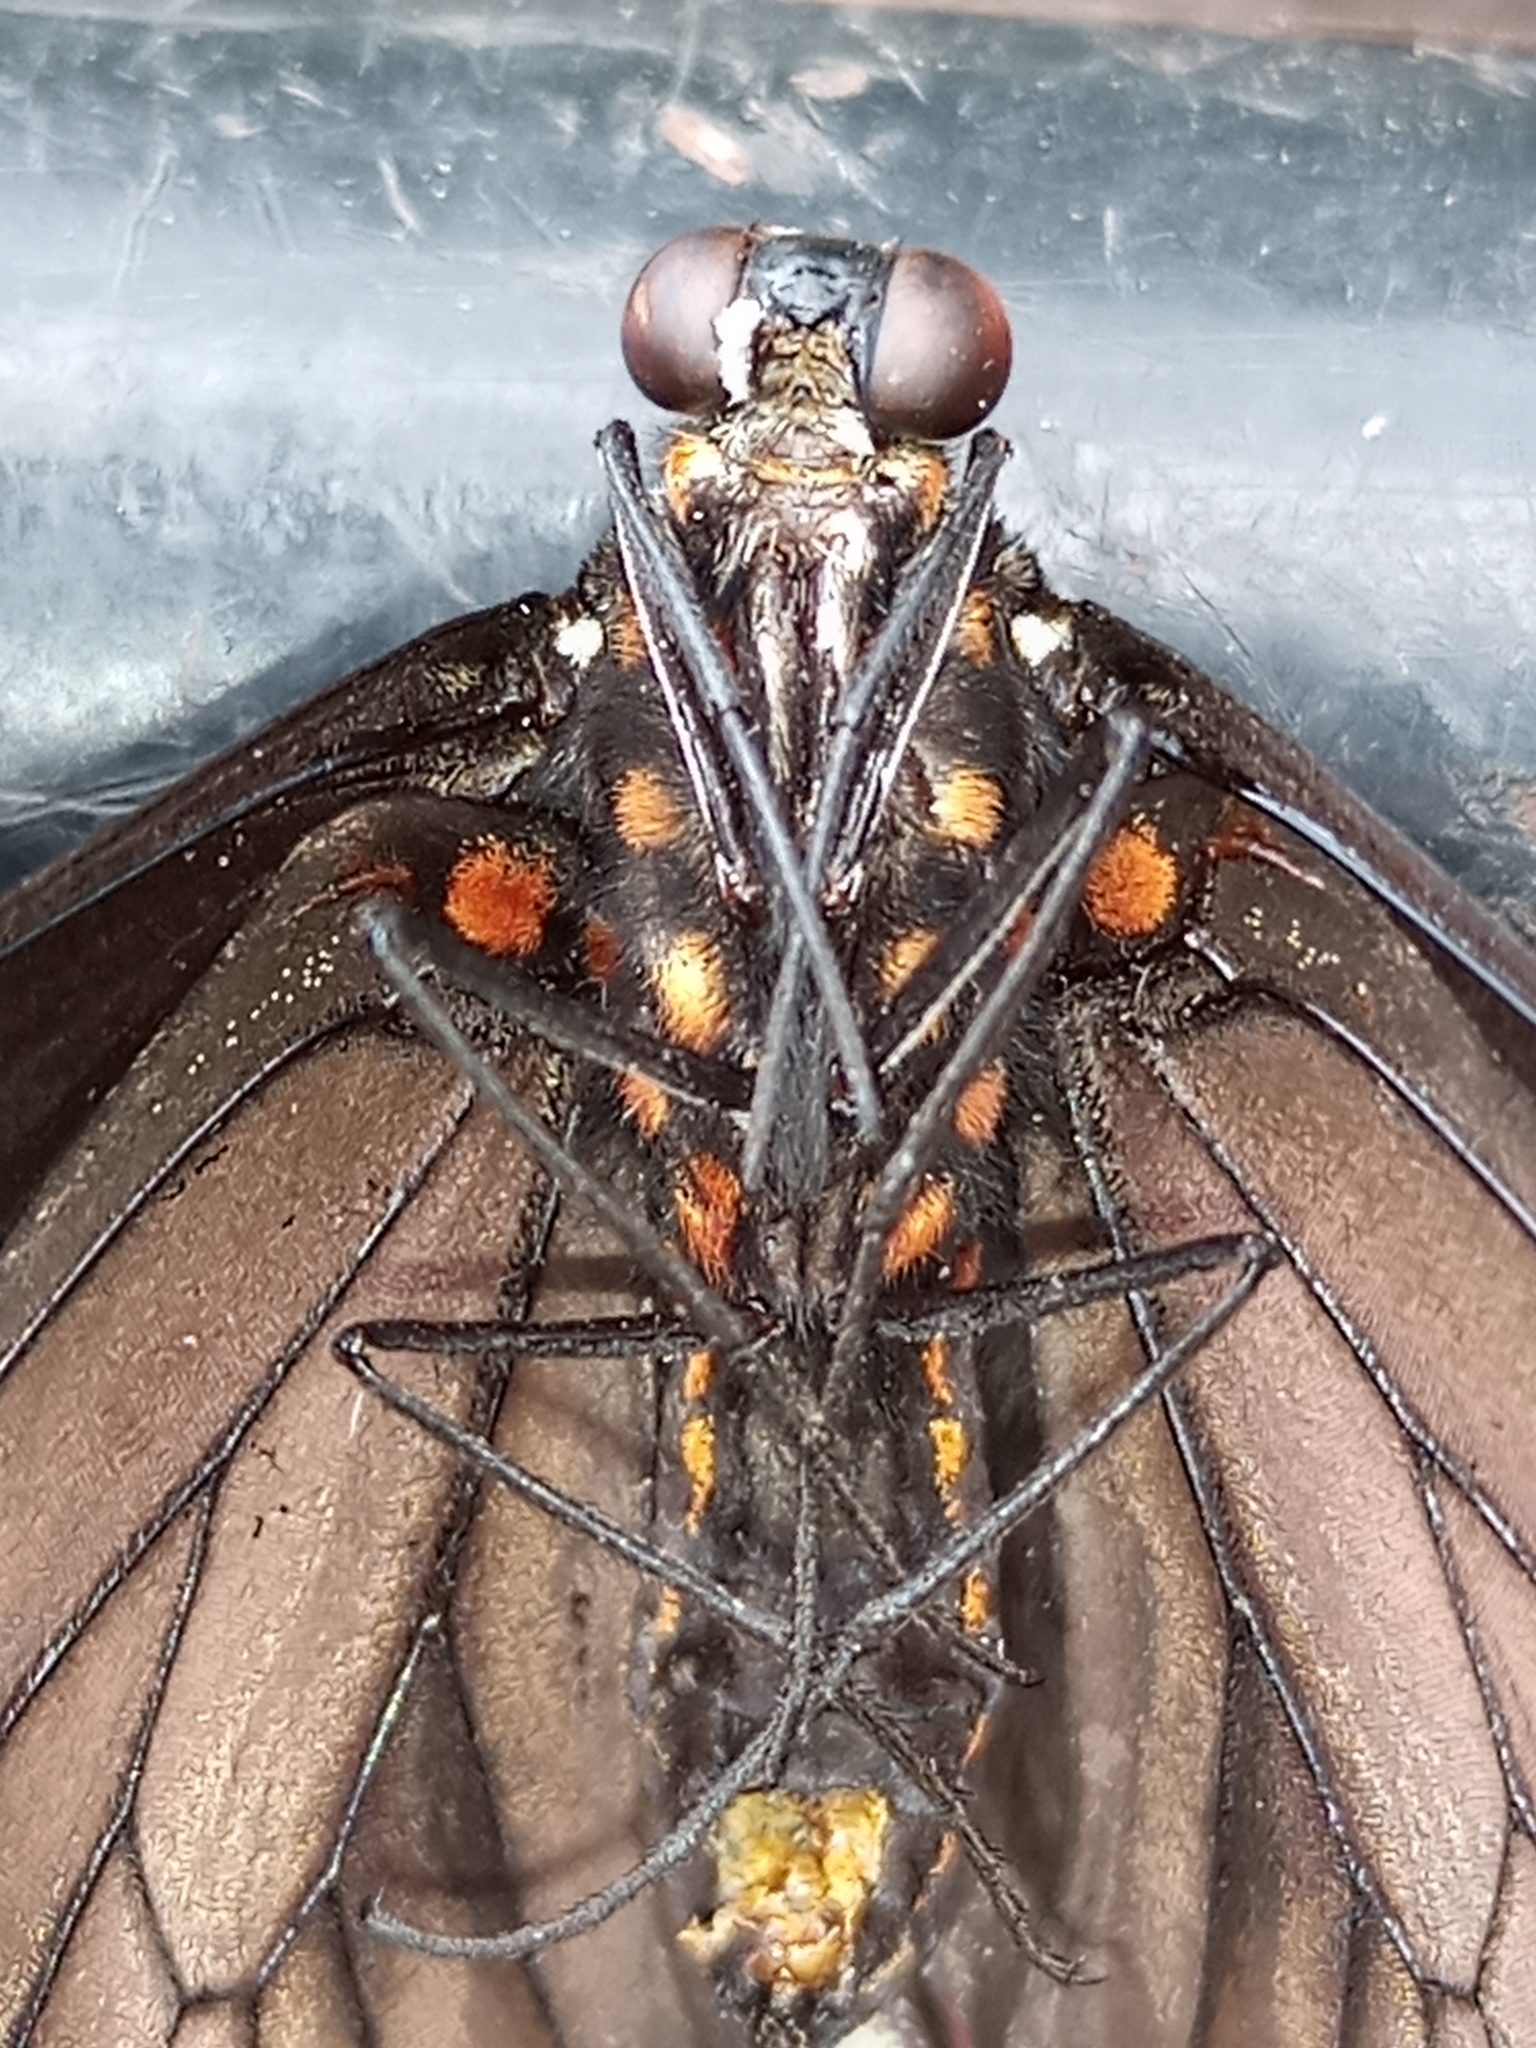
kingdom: Animalia
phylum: Arthropoda
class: Insecta
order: Lepidoptera
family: Papilionidae
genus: Battus
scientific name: Battus polydamas
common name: Polydamas swallowtail
